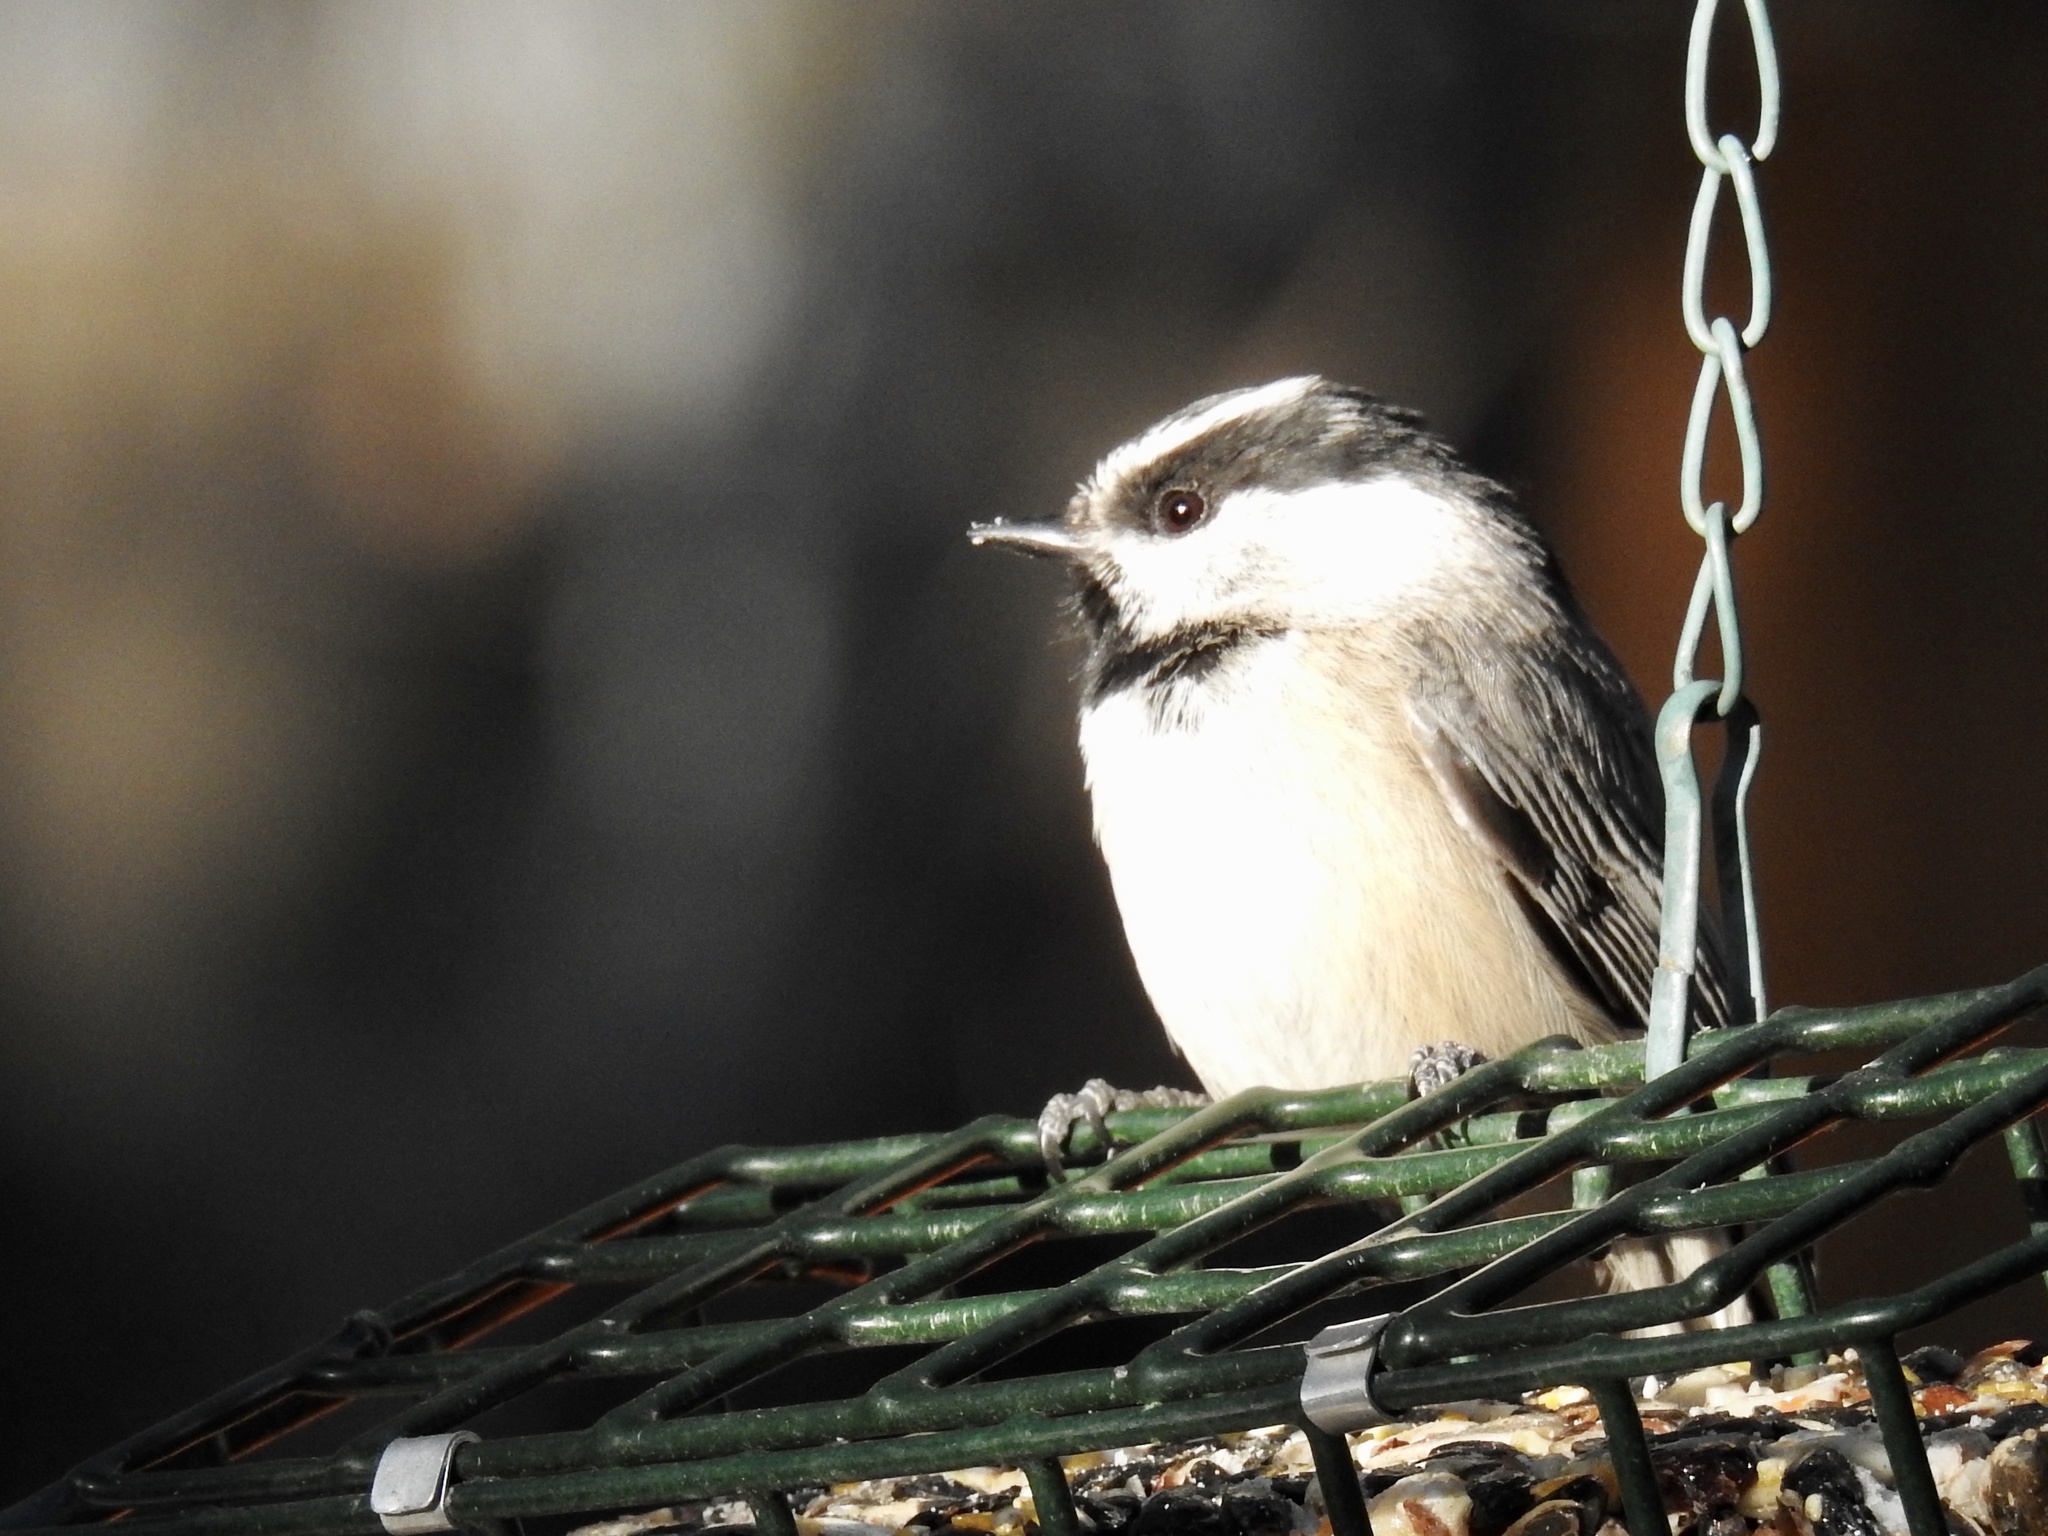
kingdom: Animalia
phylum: Chordata
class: Aves
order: Passeriformes
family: Paridae
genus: Poecile
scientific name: Poecile gambeli
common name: Mountain chickadee
